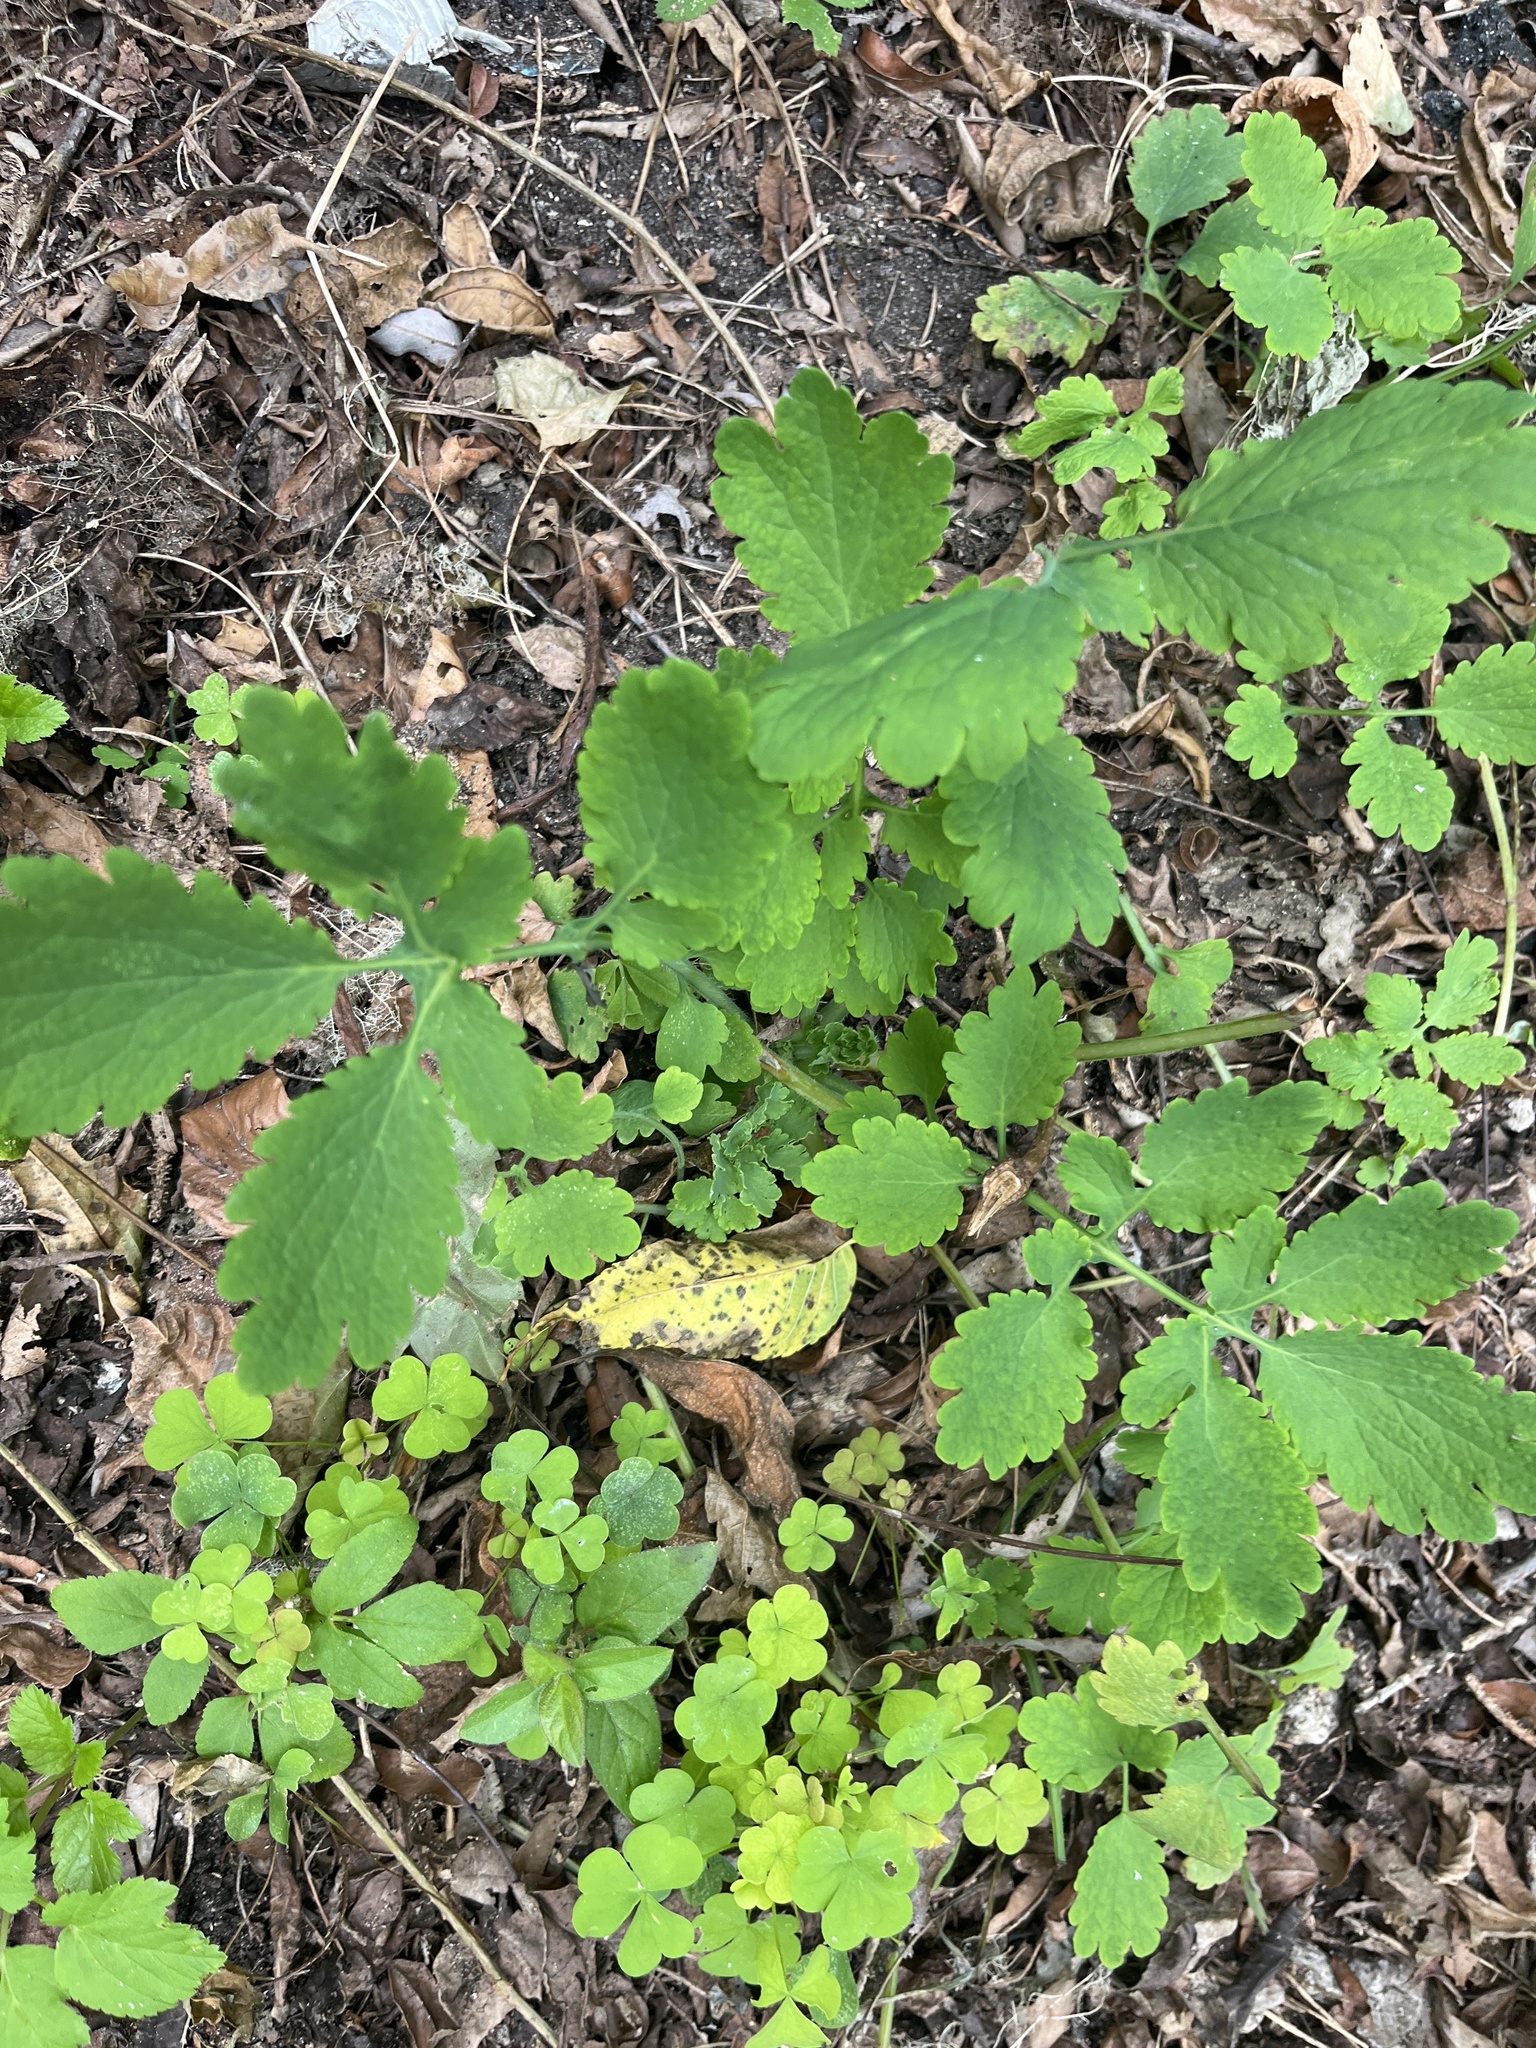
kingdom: Plantae
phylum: Tracheophyta
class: Magnoliopsida
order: Ranunculales
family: Papaveraceae
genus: Chelidonium
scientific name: Chelidonium majus
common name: Greater celandine
